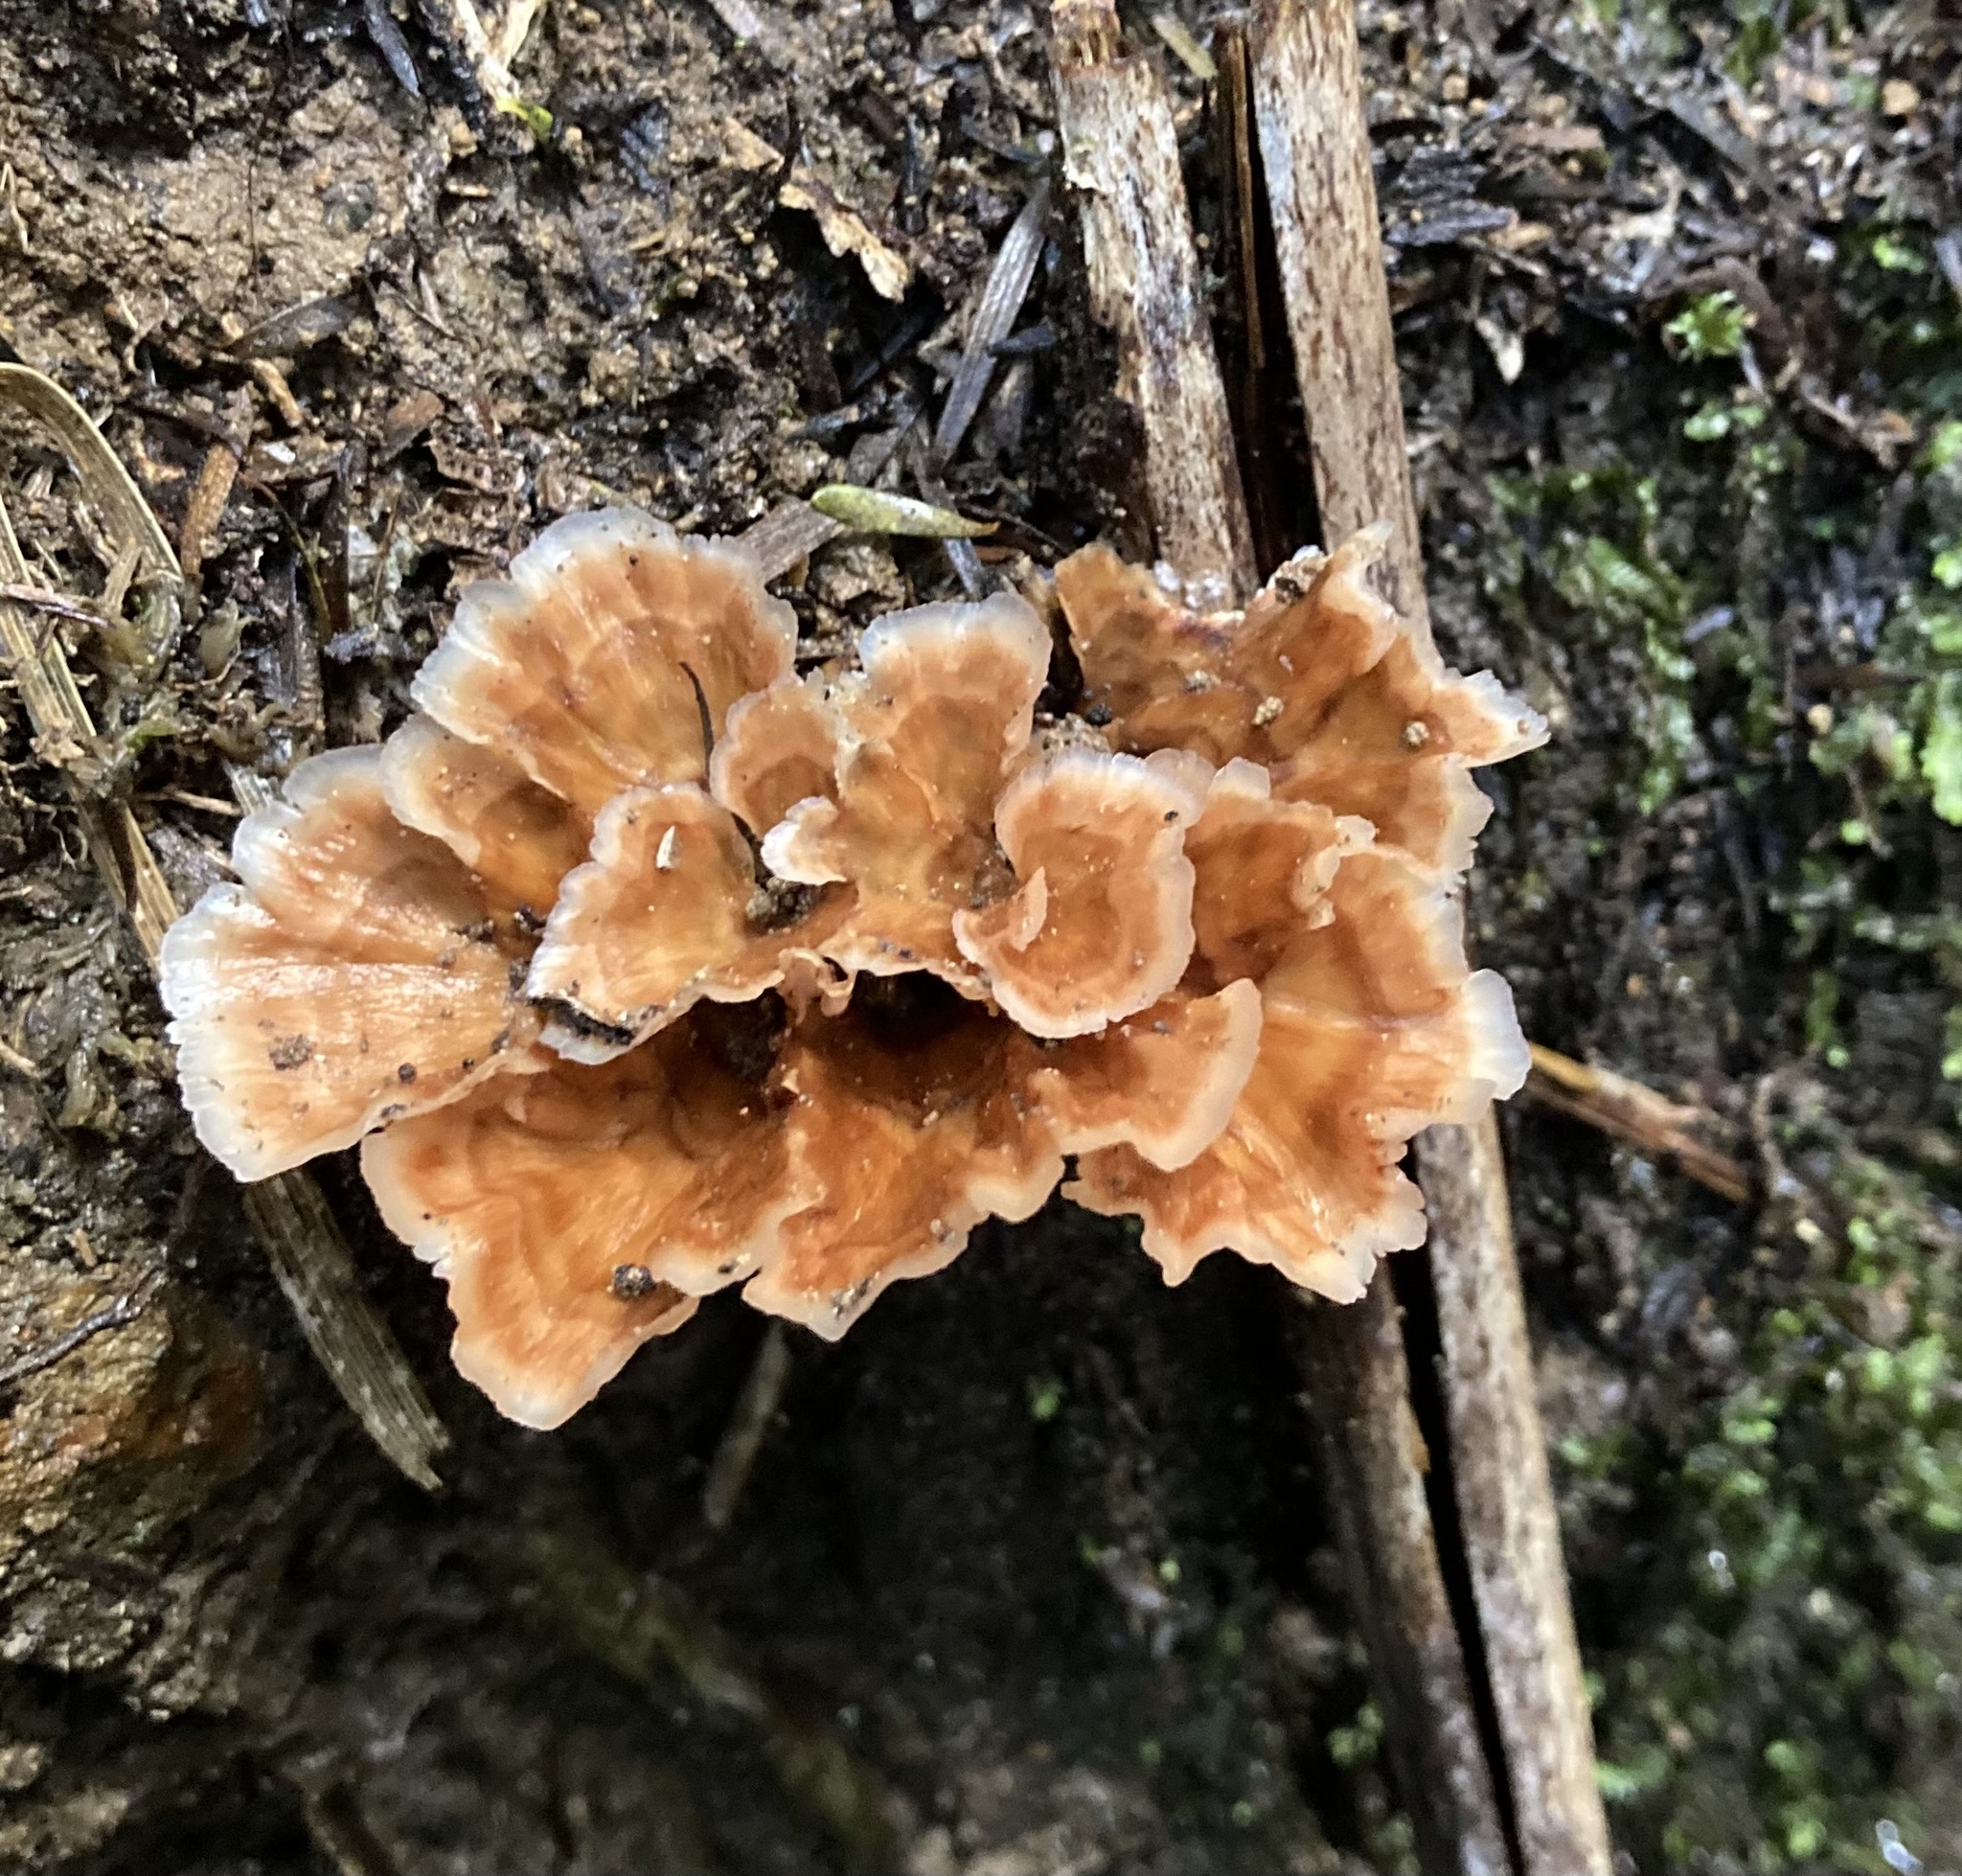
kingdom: Fungi
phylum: Basidiomycota
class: Agaricomycetes
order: Polyporales
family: Podoscyphaceae
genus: Podoscypha
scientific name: Podoscypha petalodes
